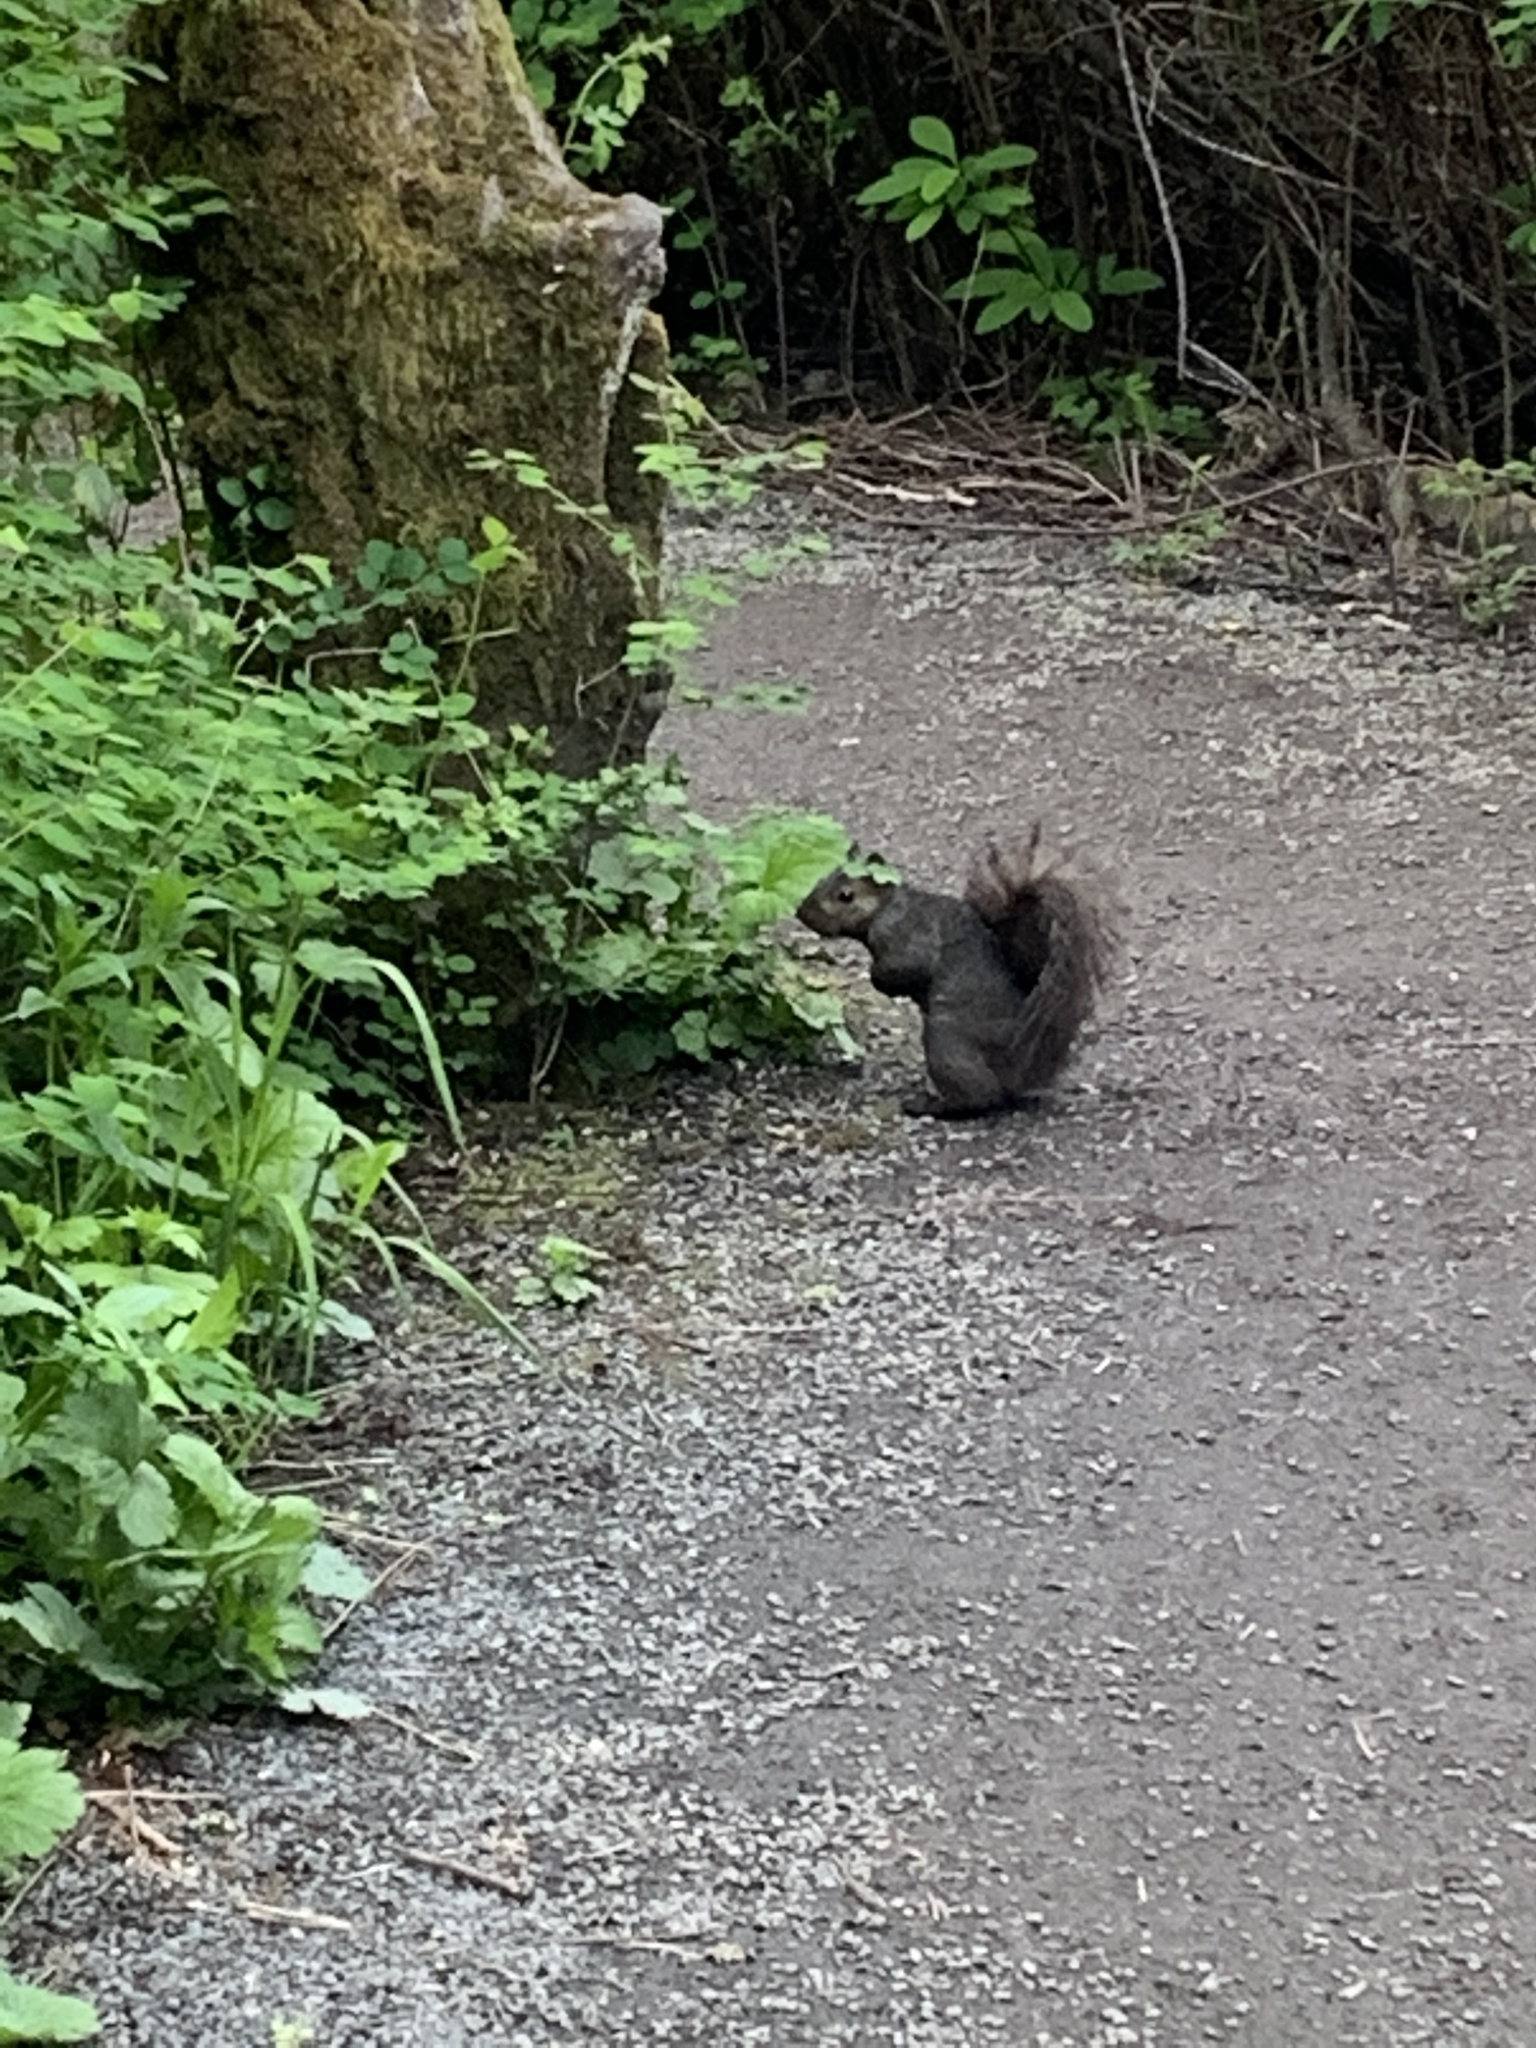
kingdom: Animalia
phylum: Chordata
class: Mammalia
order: Rodentia
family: Sciuridae
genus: Sciurus
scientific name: Sciurus carolinensis
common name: Eastern gray squirrel
